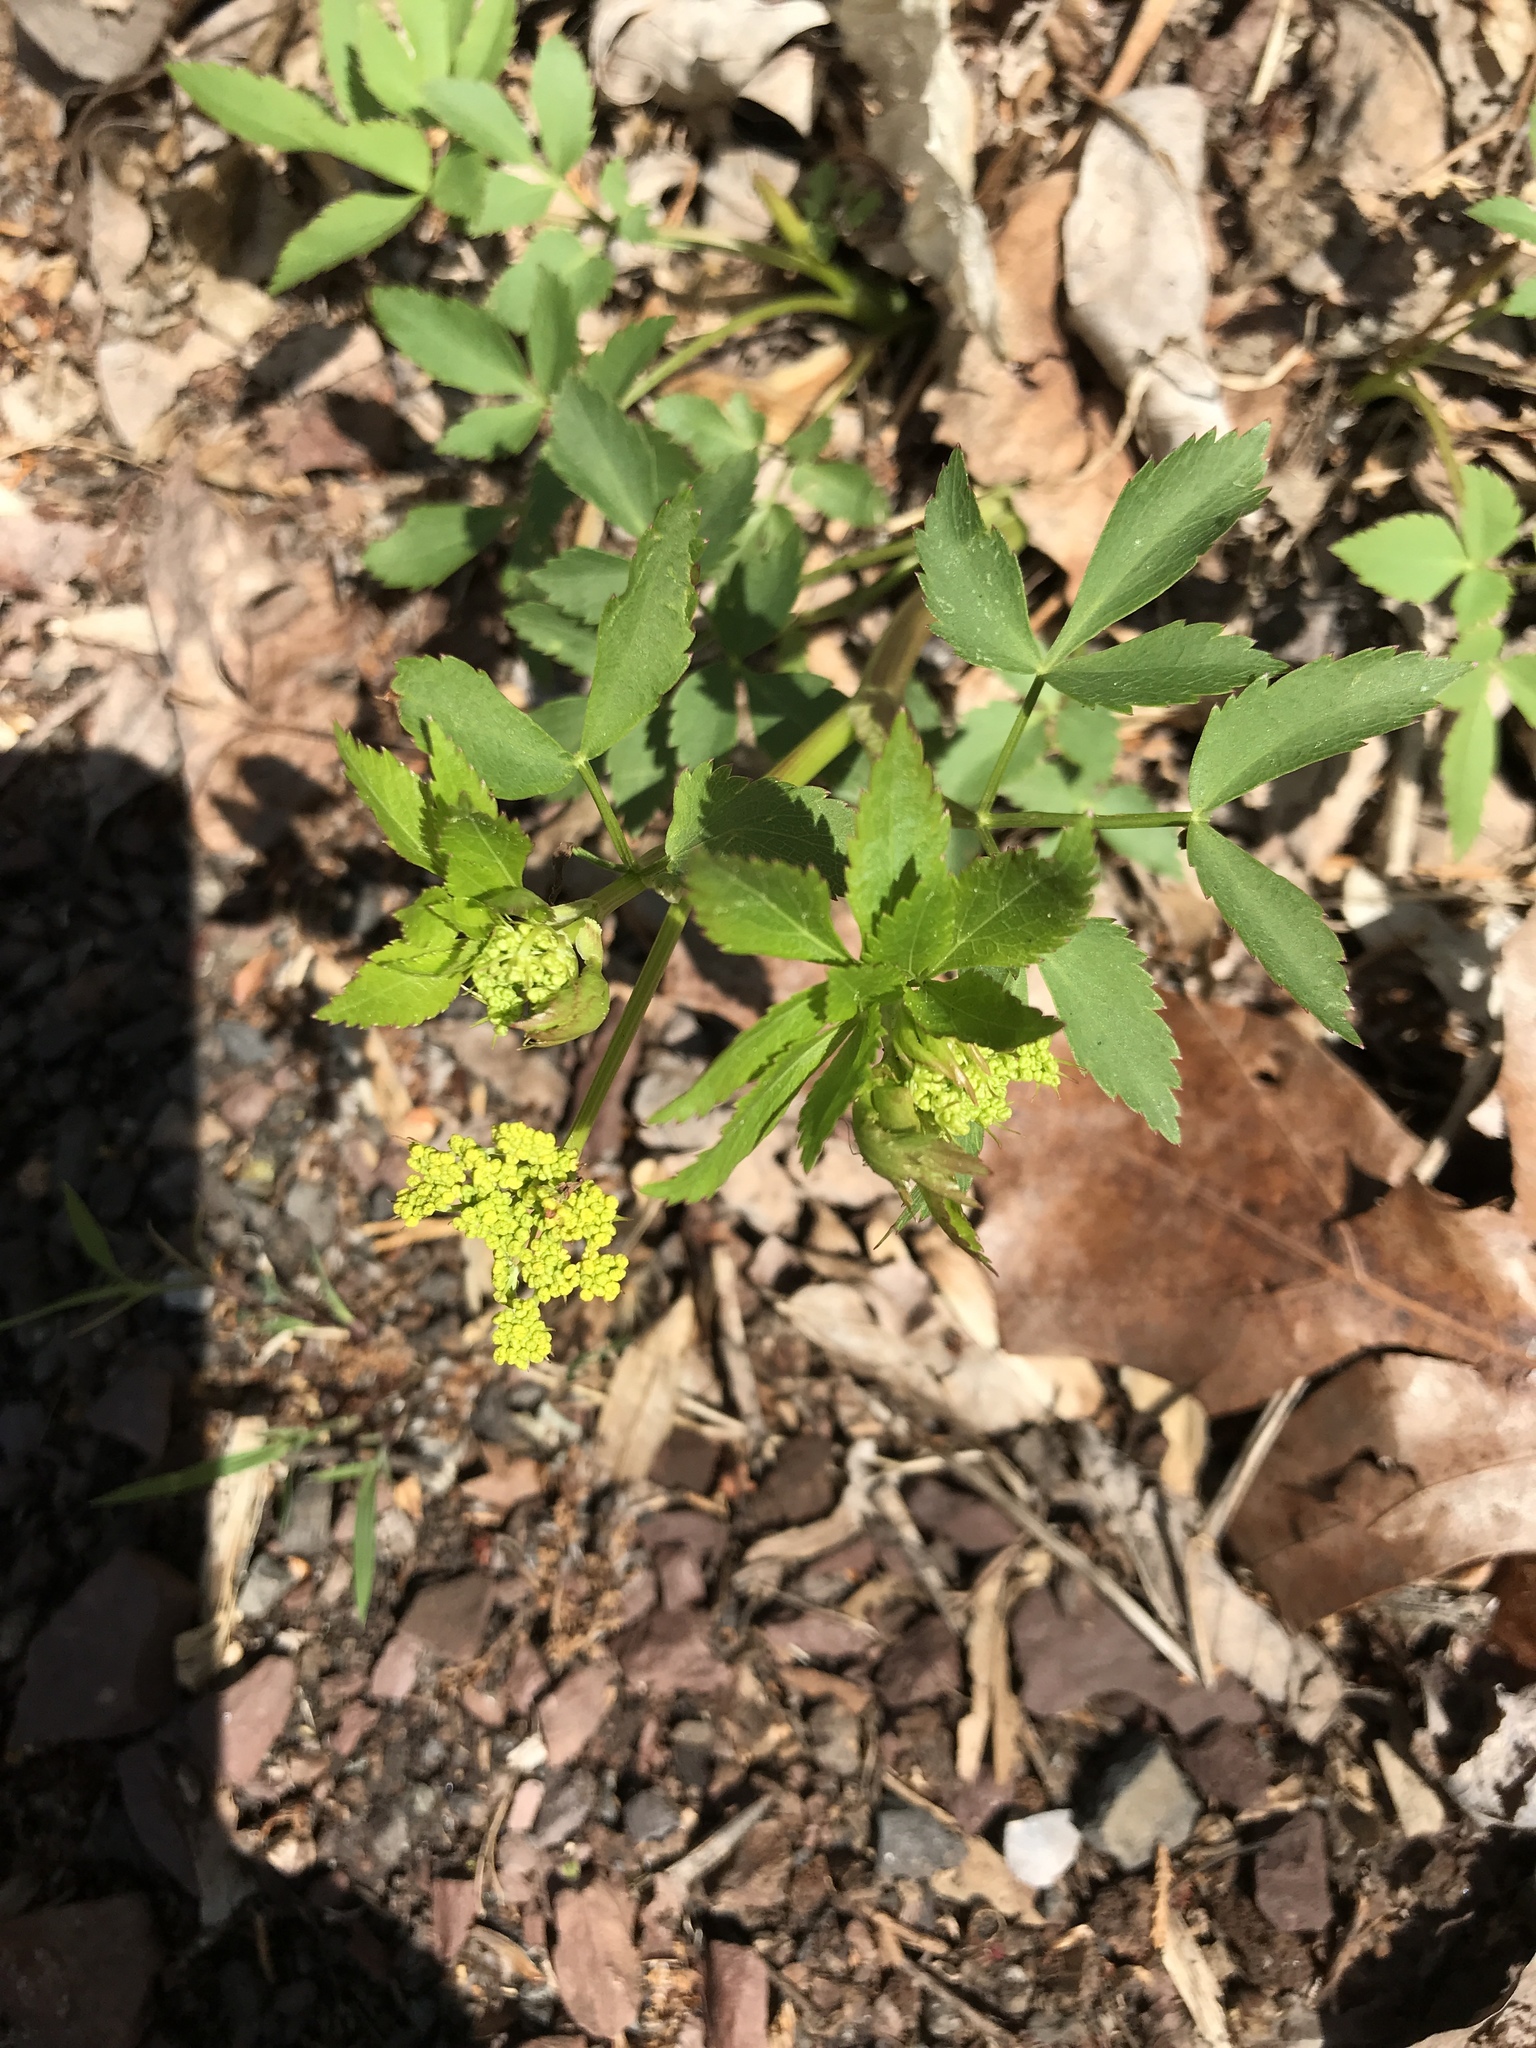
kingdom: Plantae
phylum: Tracheophyta
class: Magnoliopsida
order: Apiales
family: Apiaceae
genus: Zizia
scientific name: Zizia aurea
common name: Golden alexanders
